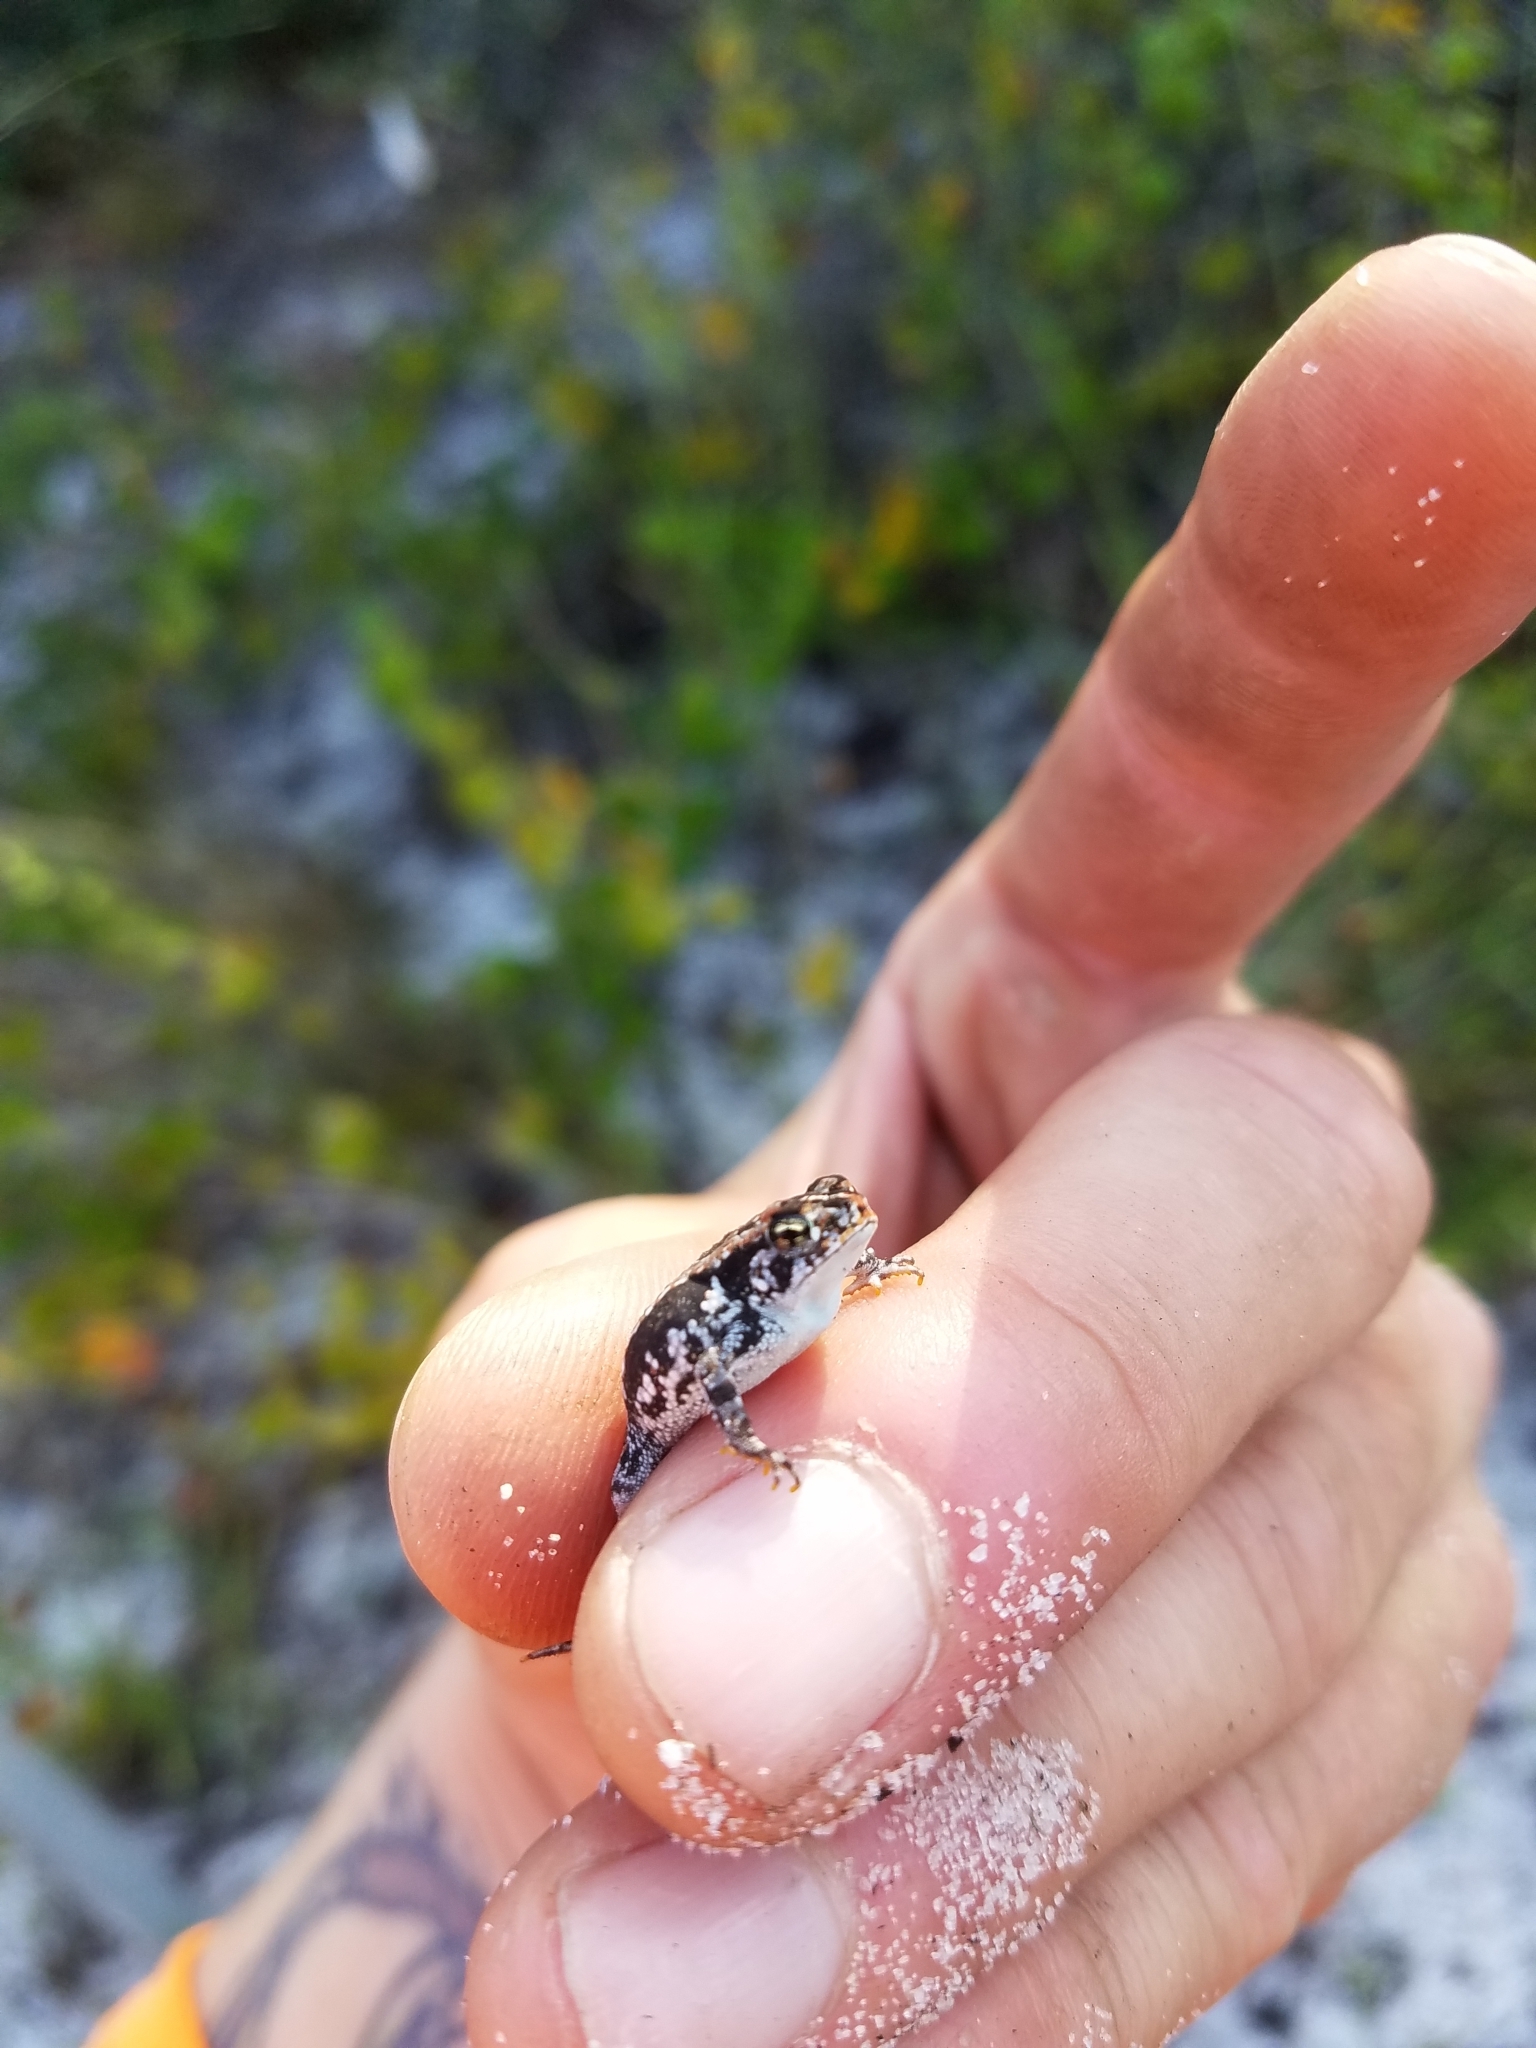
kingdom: Animalia
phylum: Chordata
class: Amphibia
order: Anura
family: Bufonidae
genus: Anaxyrus
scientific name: Anaxyrus quercicus
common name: Oak toad
